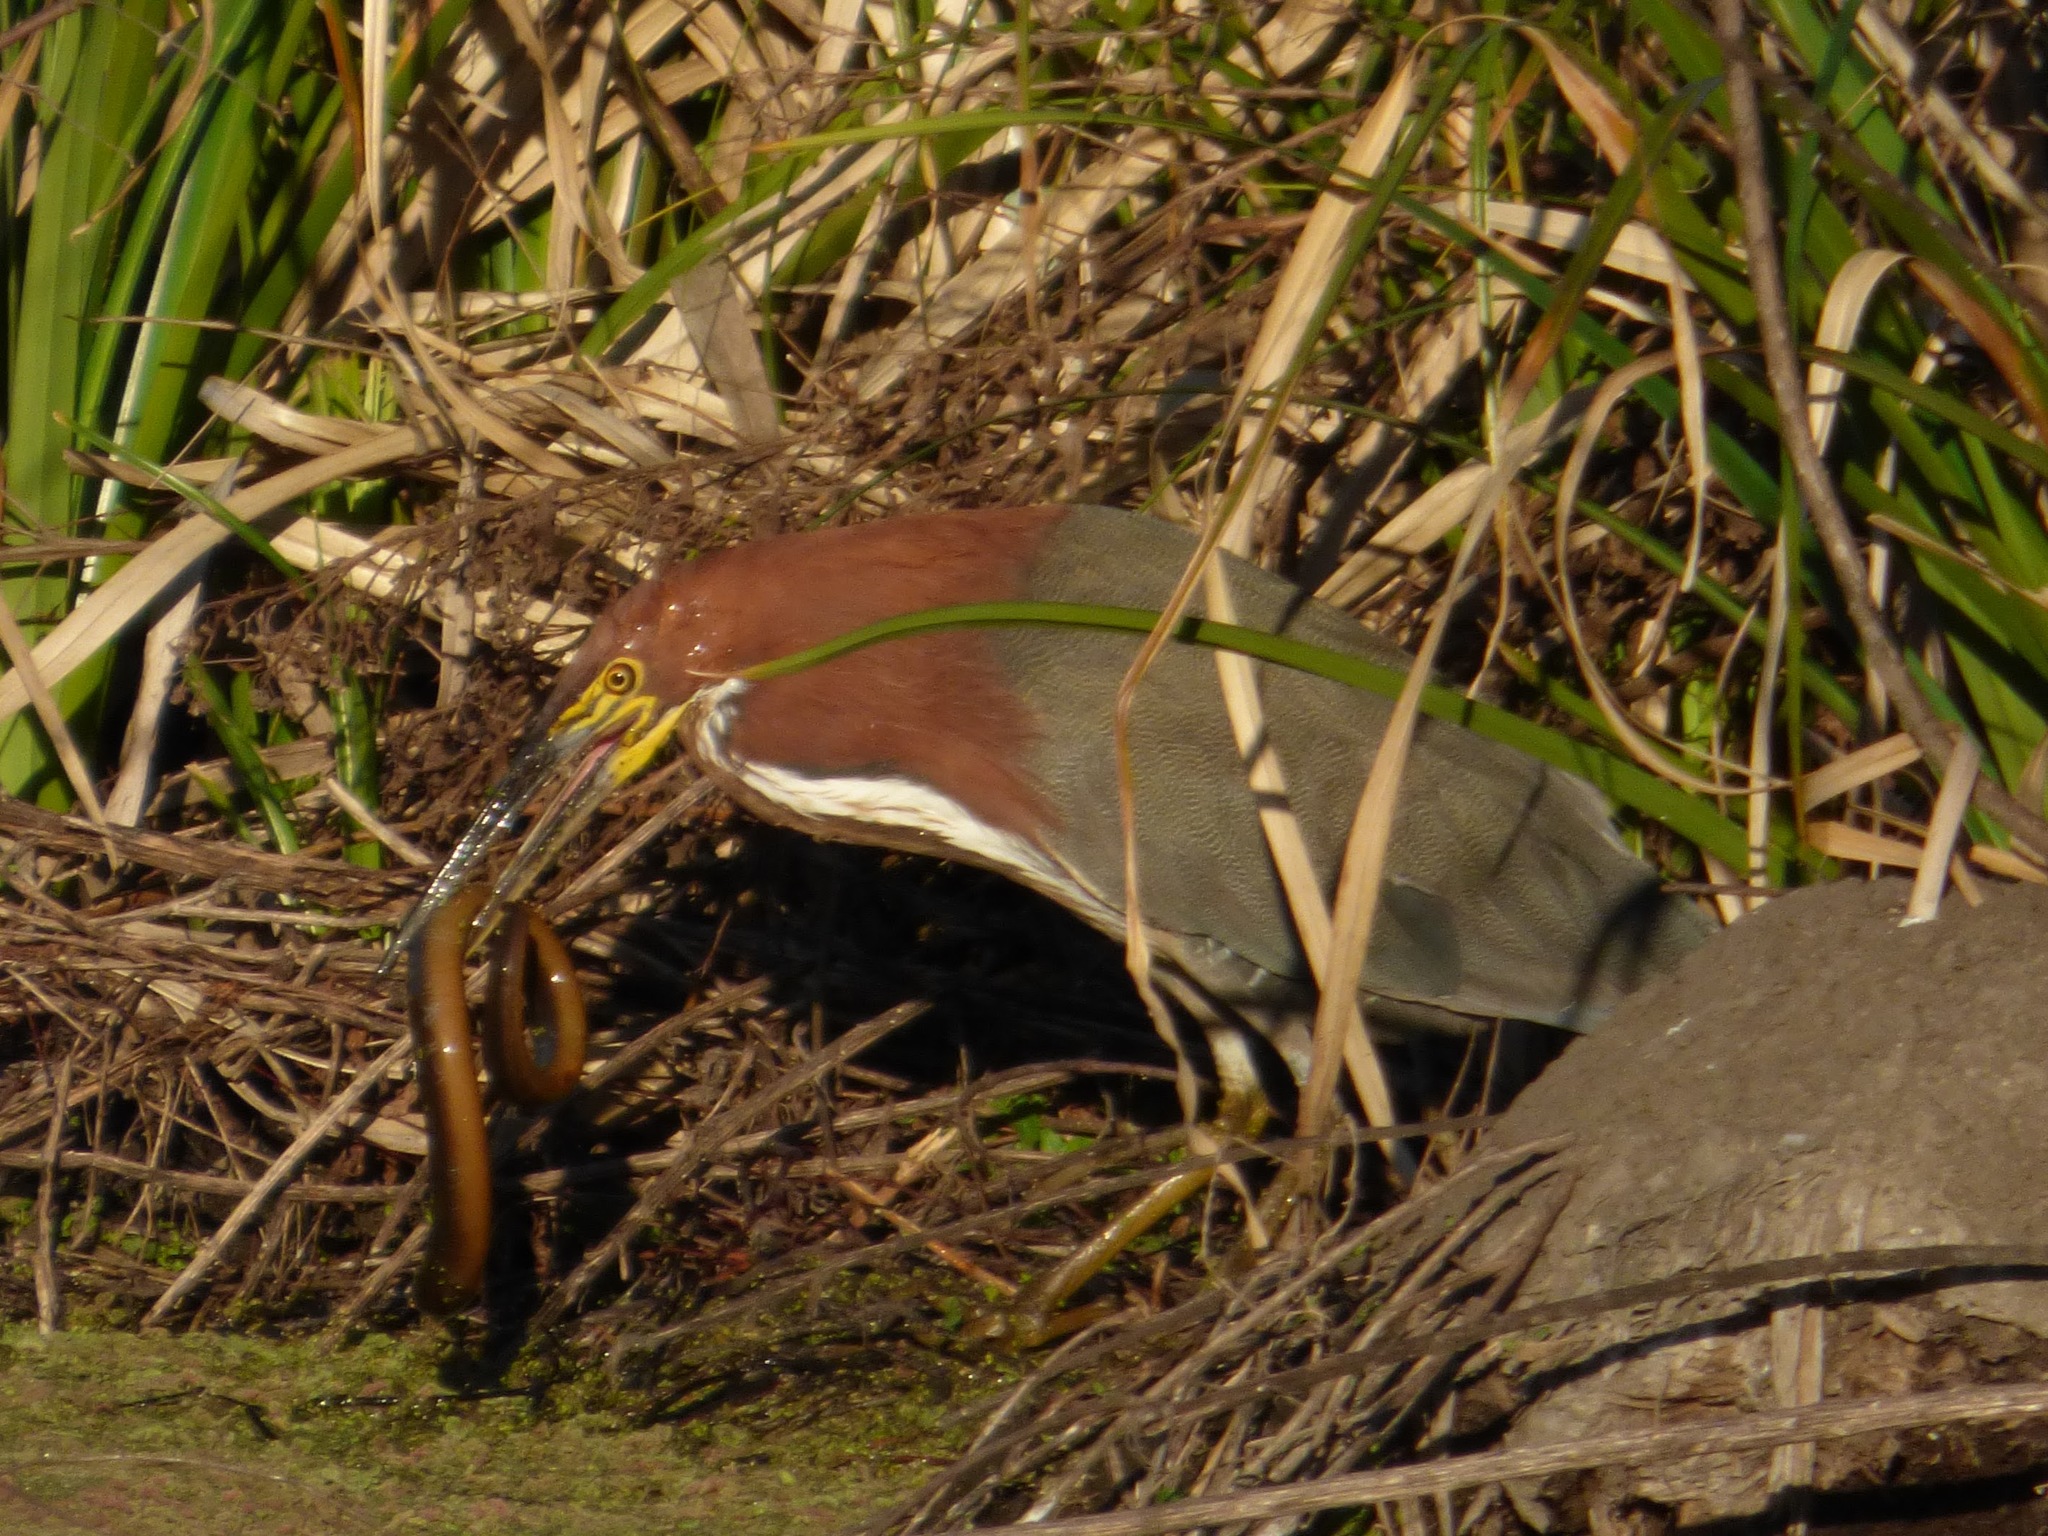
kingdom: Animalia
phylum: Chordata
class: Aves
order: Pelecaniformes
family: Ardeidae
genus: Tigrisoma
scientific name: Tigrisoma lineatum
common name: Rufescent tiger-heron
